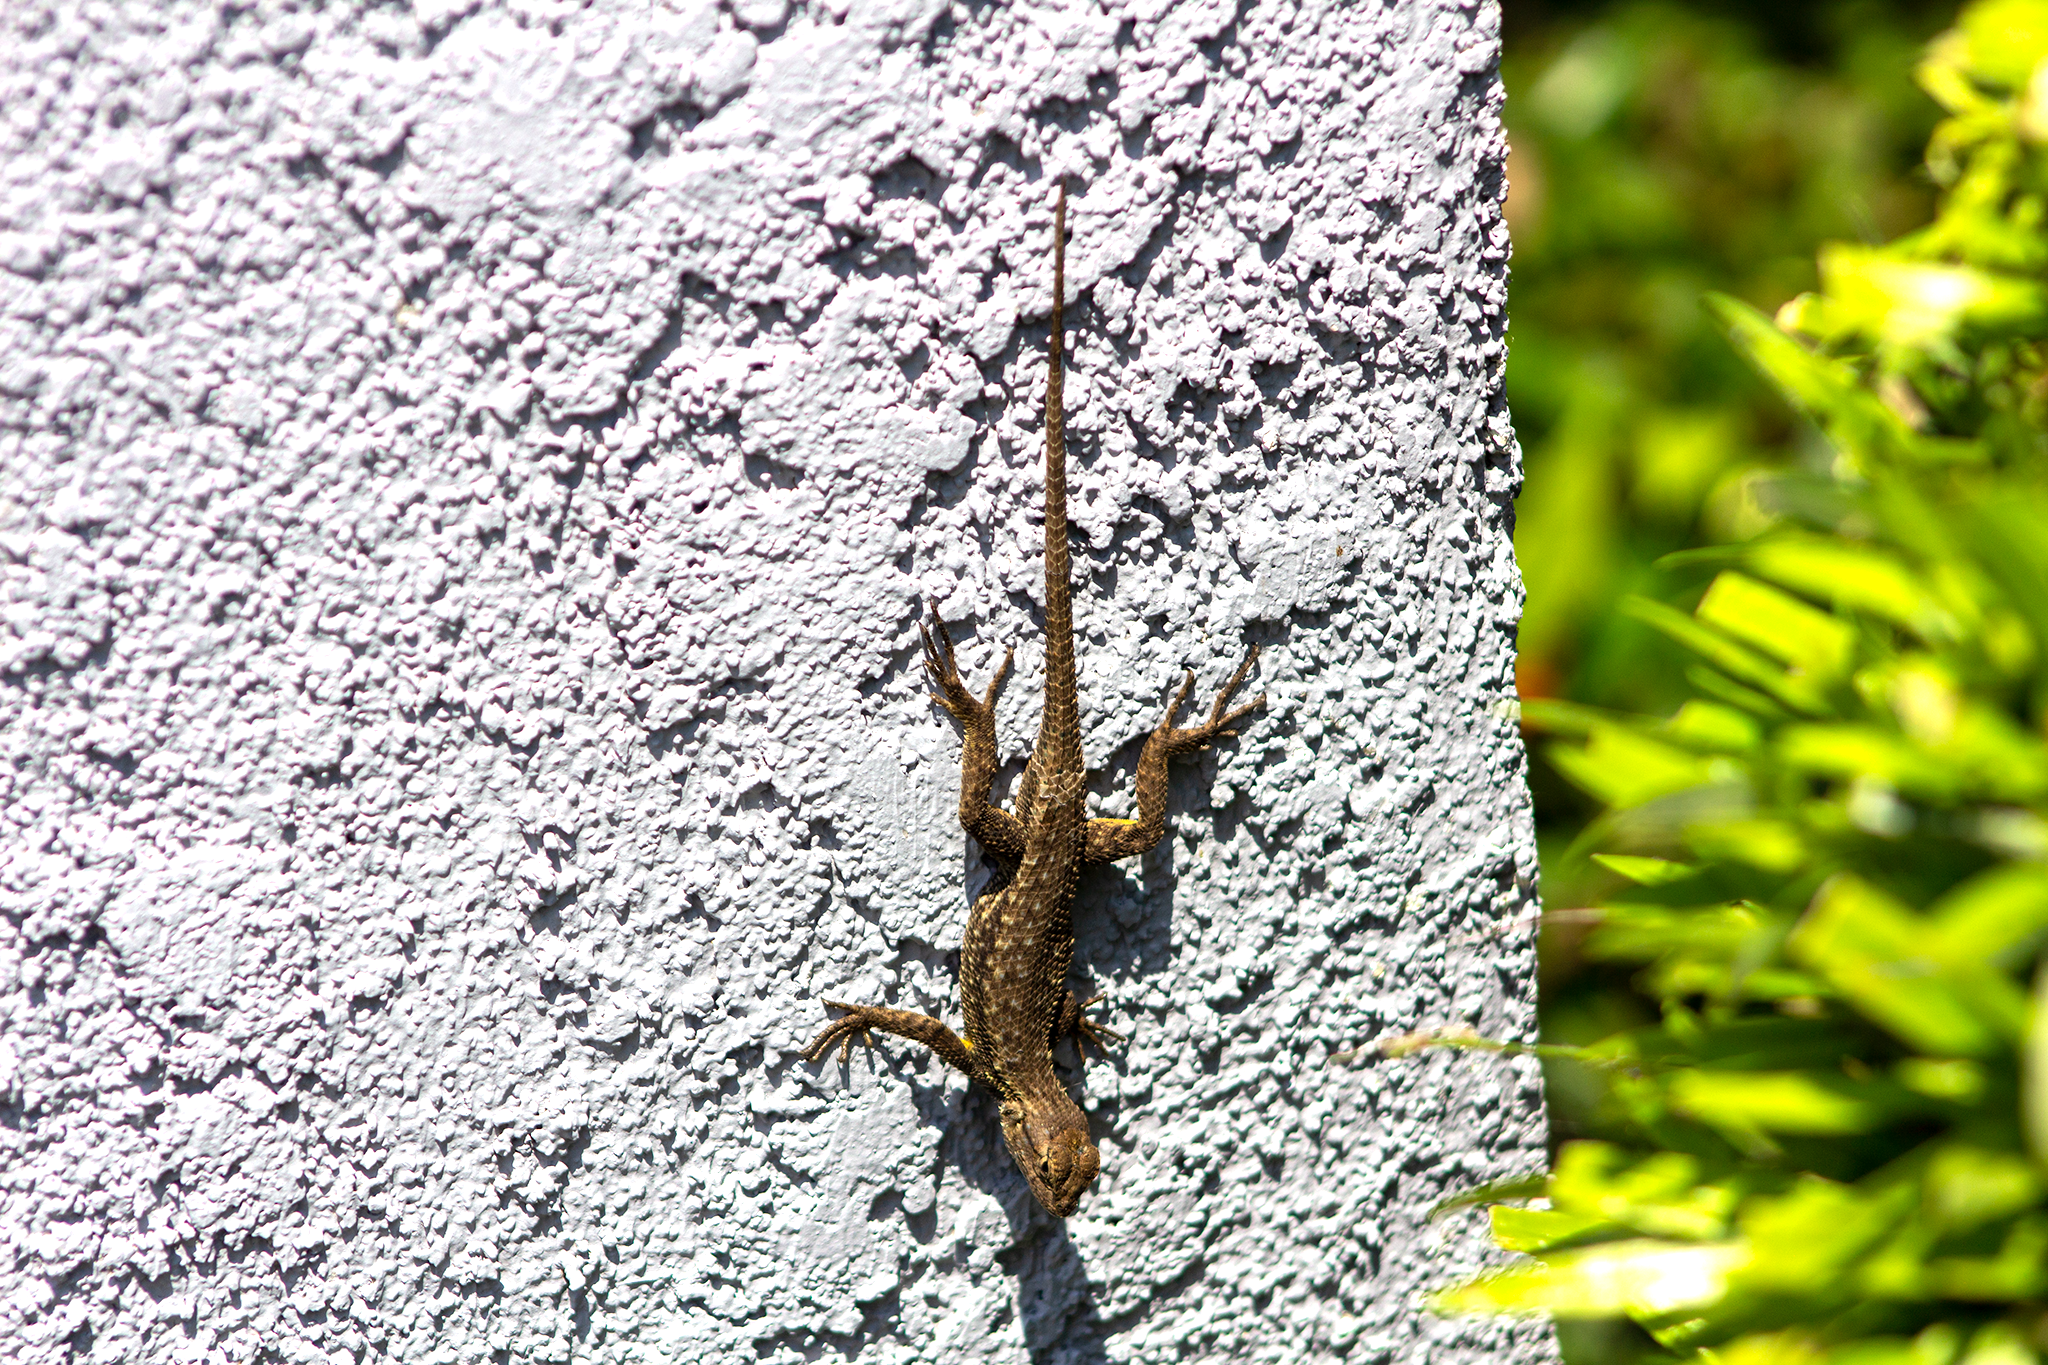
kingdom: Animalia
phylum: Chordata
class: Squamata
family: Phrynosomatidae
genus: Sceloporus
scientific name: Sceloporus occidentalis
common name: Western fence lizard
